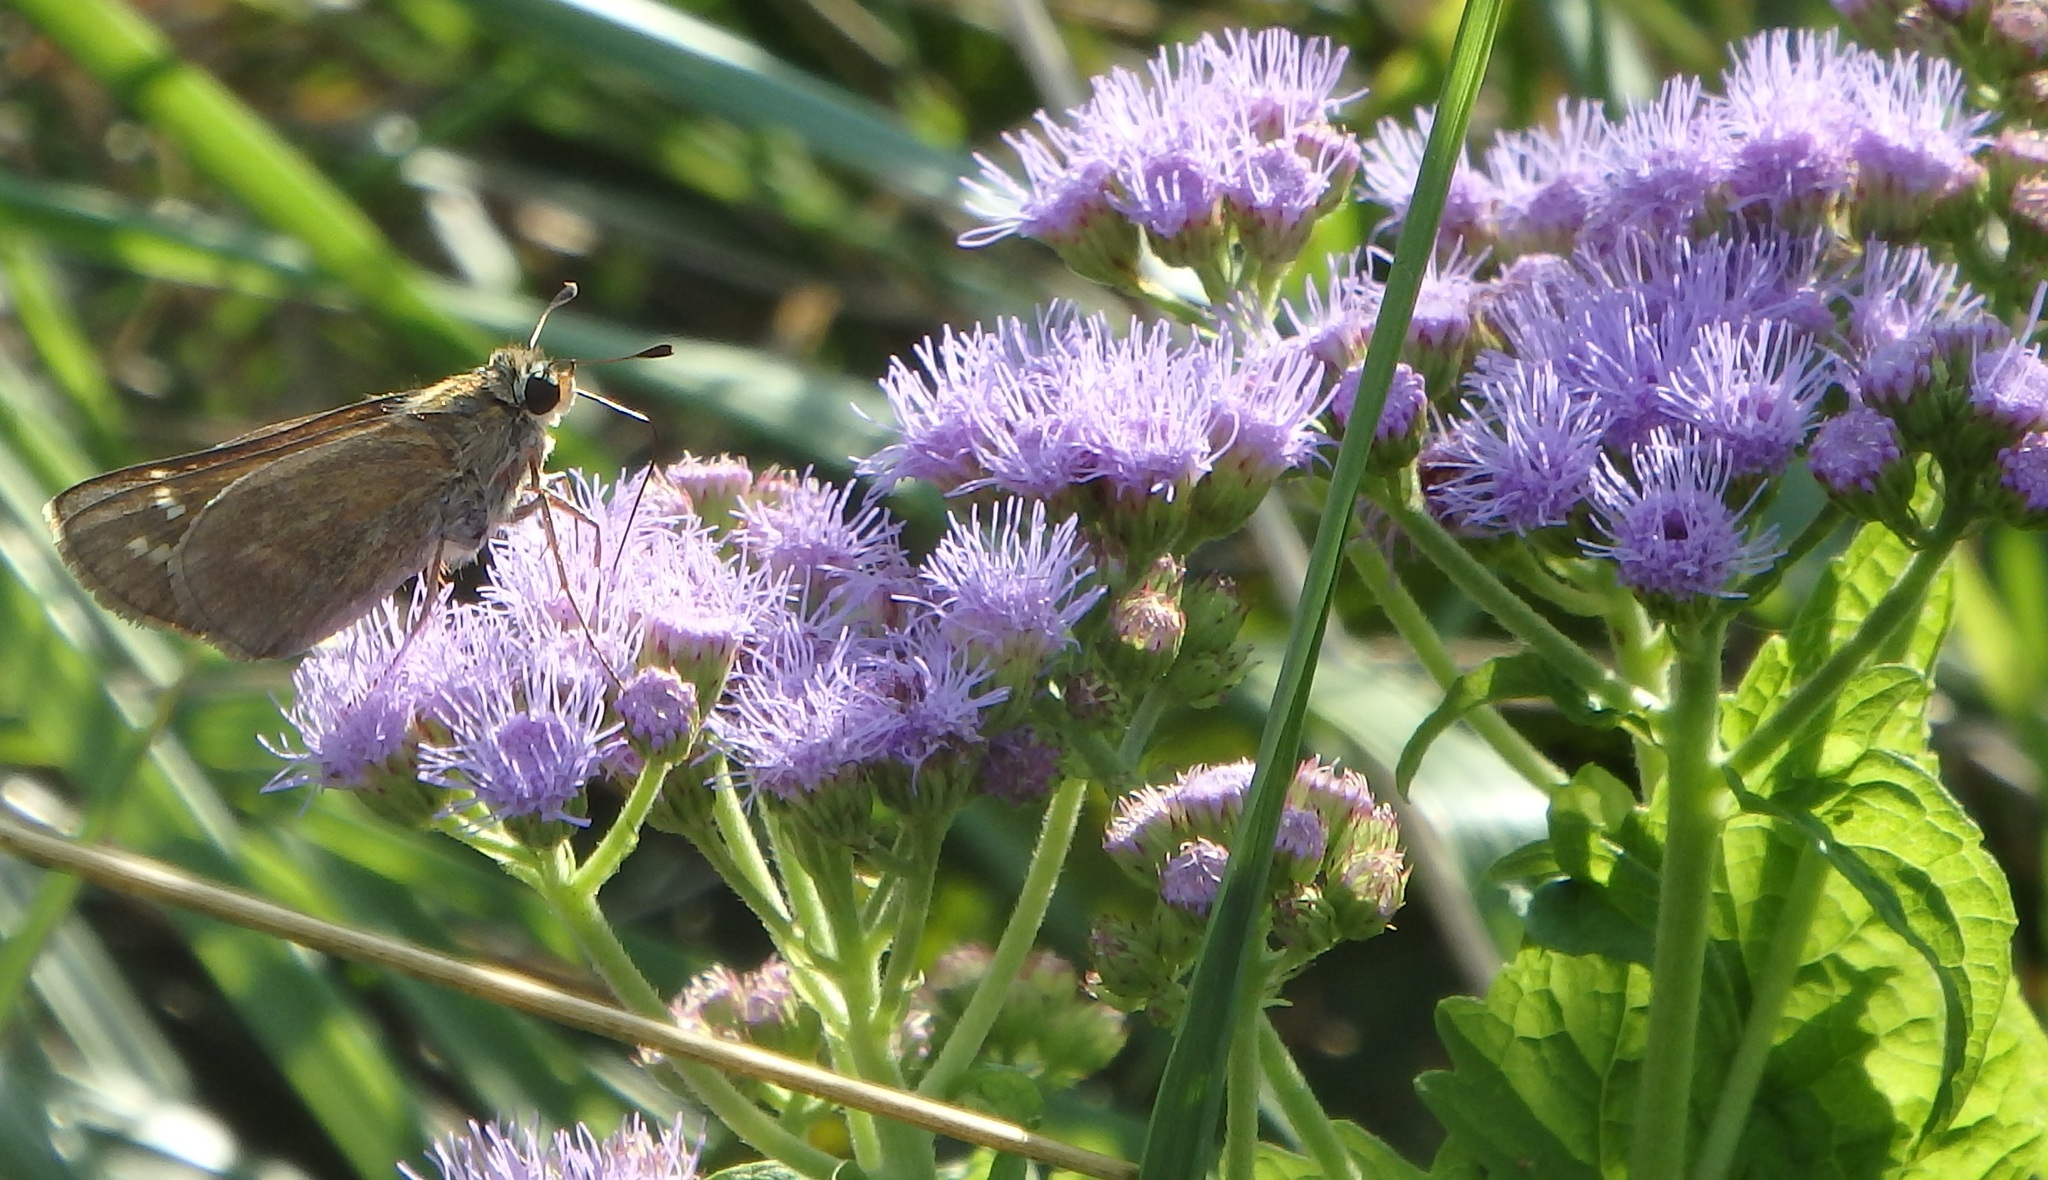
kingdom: Animalia
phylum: Arthropoda
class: Insecta
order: Lepidoptera
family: Hesperiidae
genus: Atalopedes
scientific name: Atalopedes
